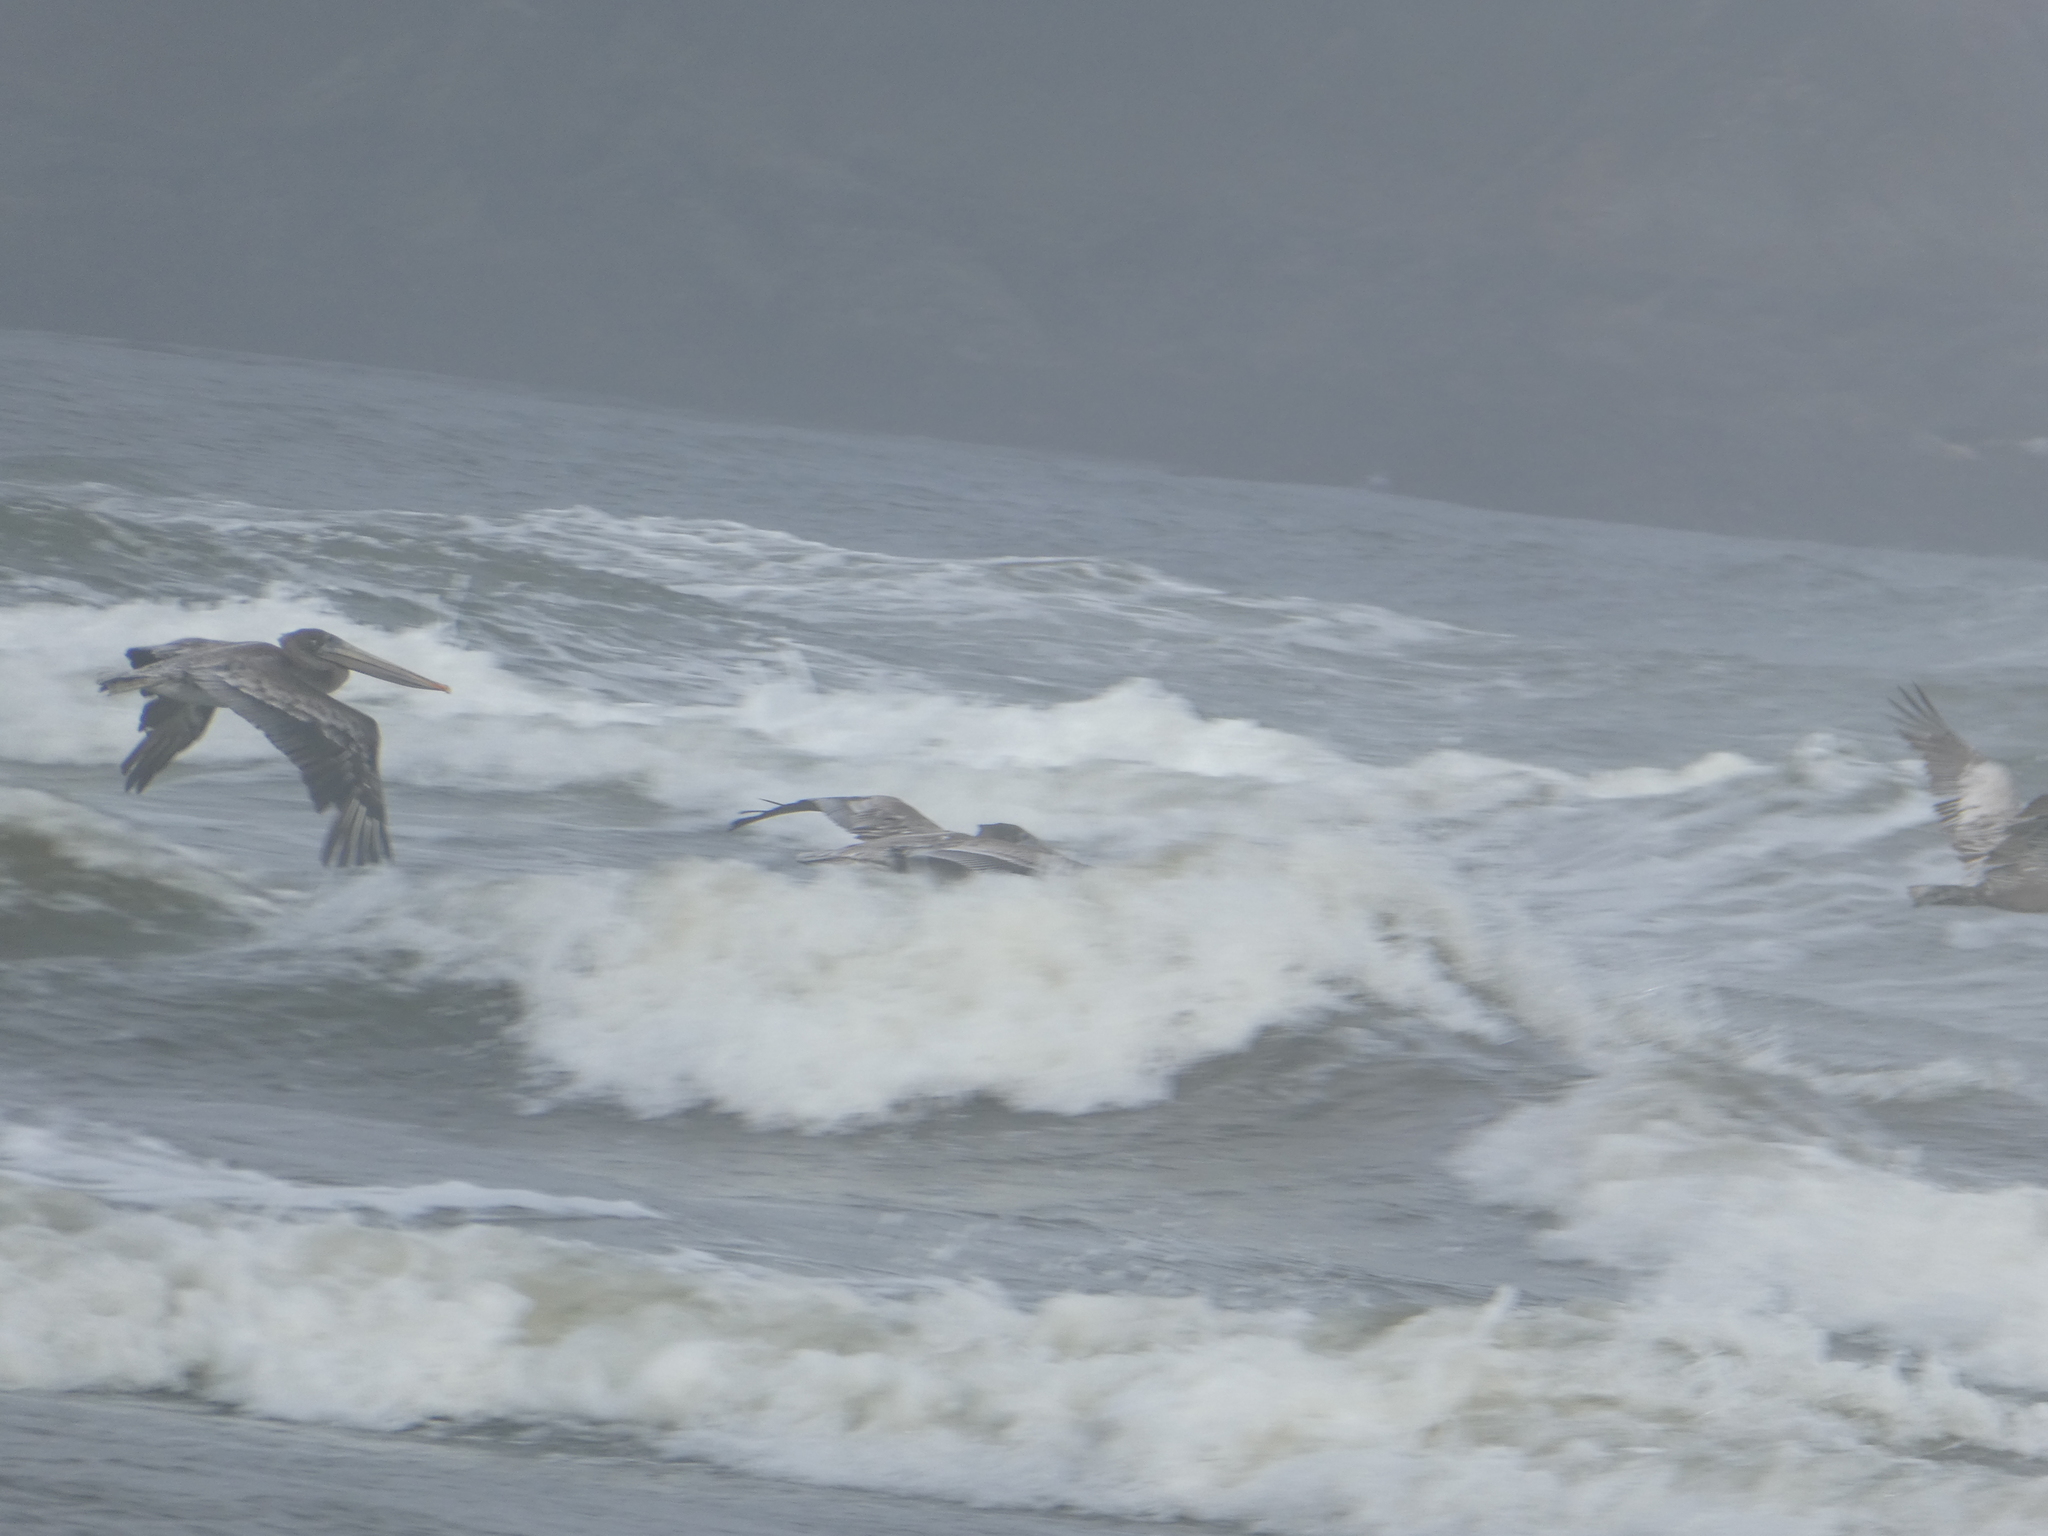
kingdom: Animalia
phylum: Chordata
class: Aves
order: Pelecaniformes
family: Pelecanidae
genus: Pelecanus
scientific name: Pelecanus occidentalis
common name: Brown pelican
